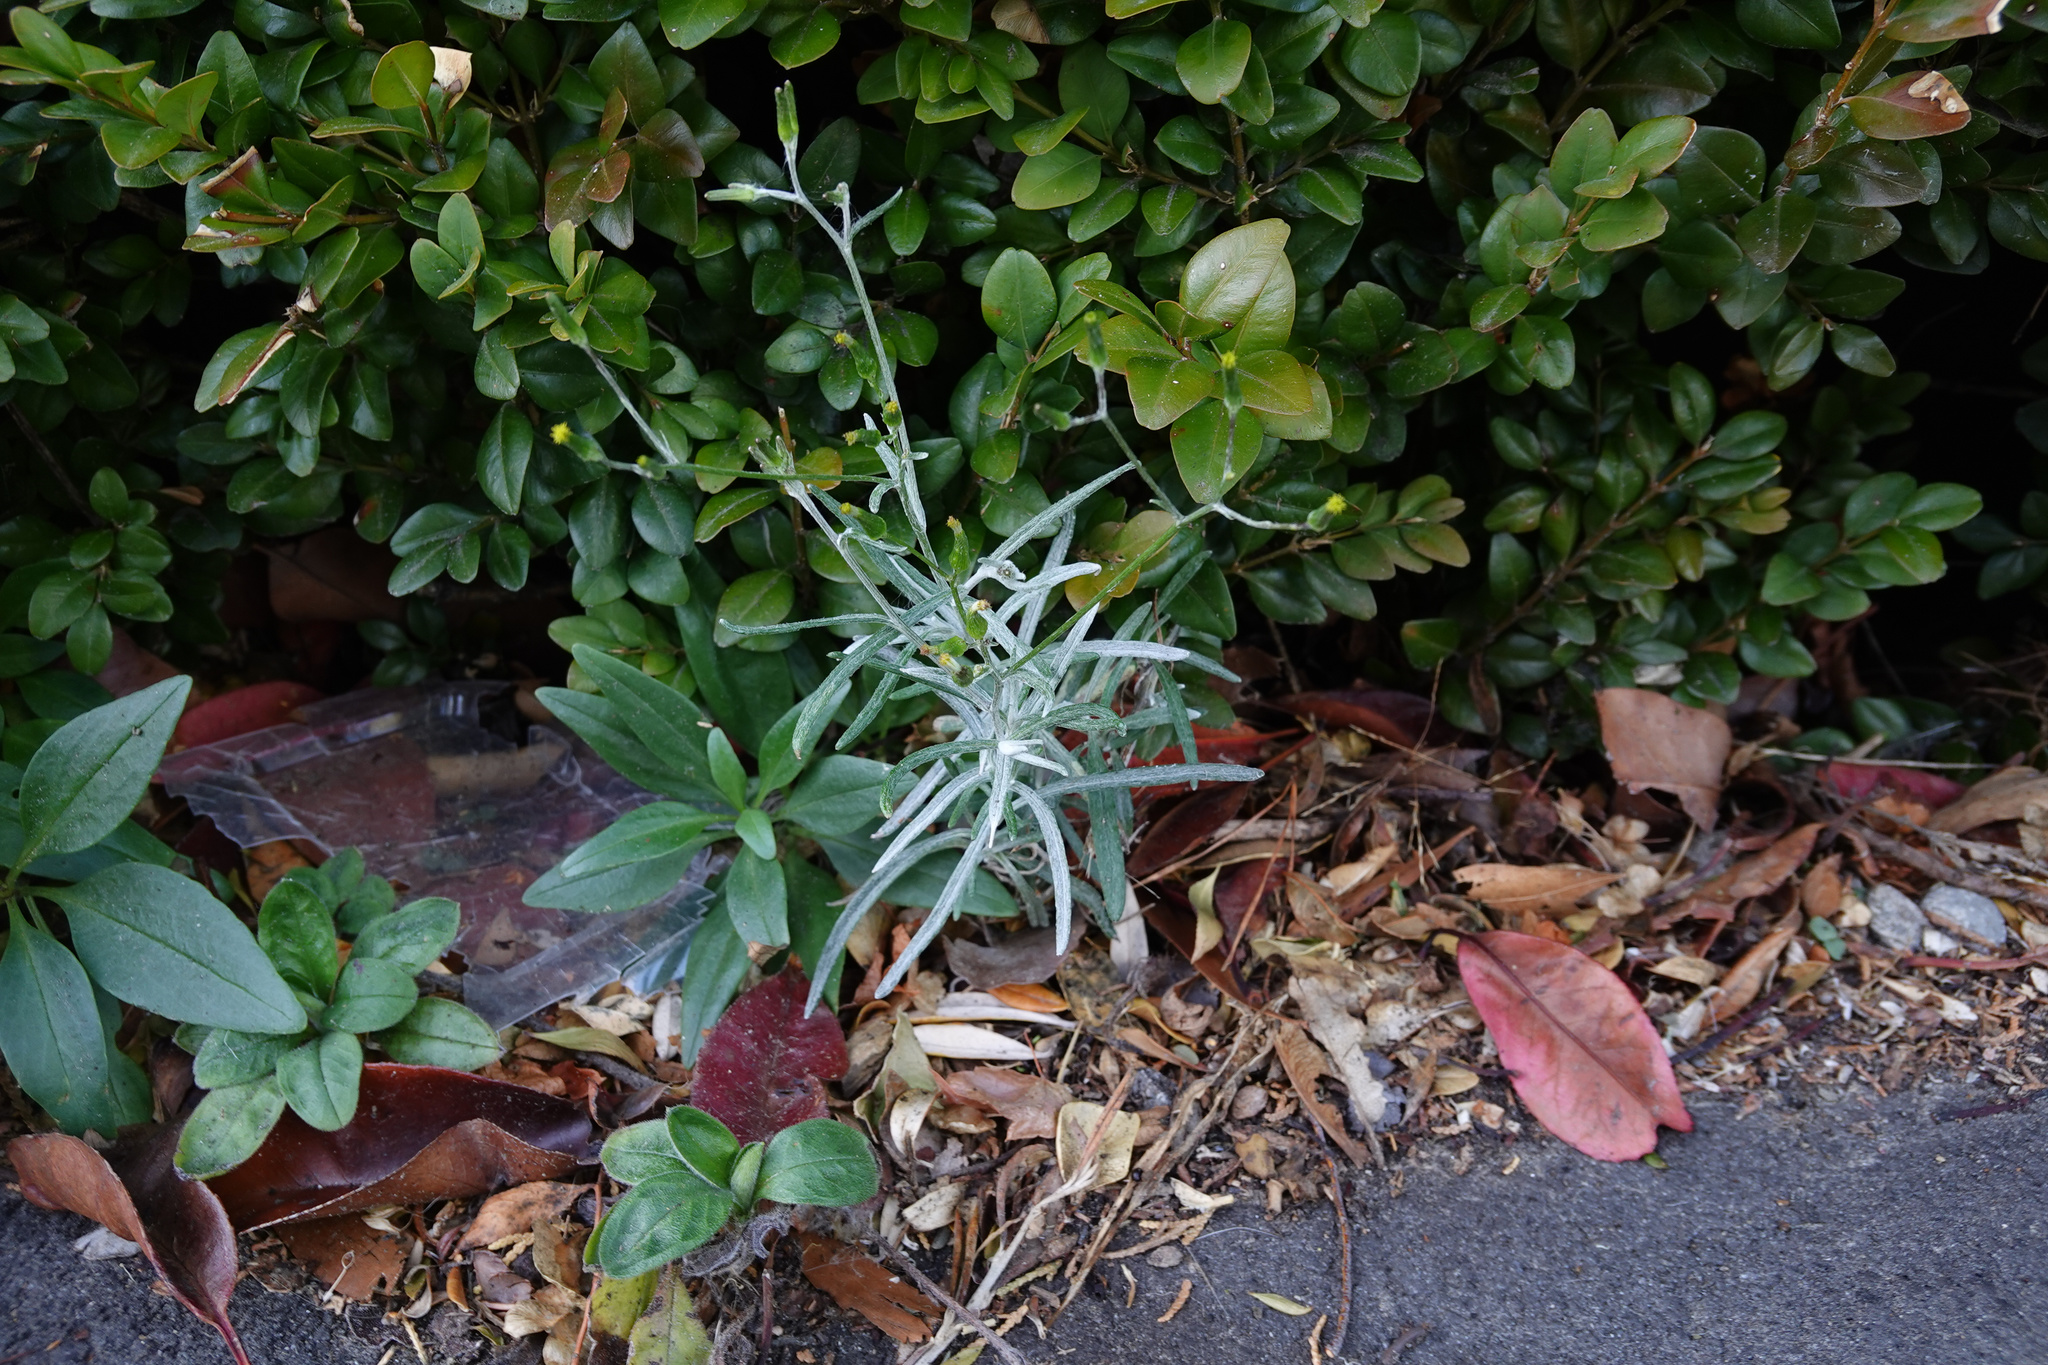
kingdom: Plantae
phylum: Tracheophyta
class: Magnoliopsida
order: Asterales
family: Asteraceae
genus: Senecio
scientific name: Senecio quadridentatus
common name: Cotton fireweed
